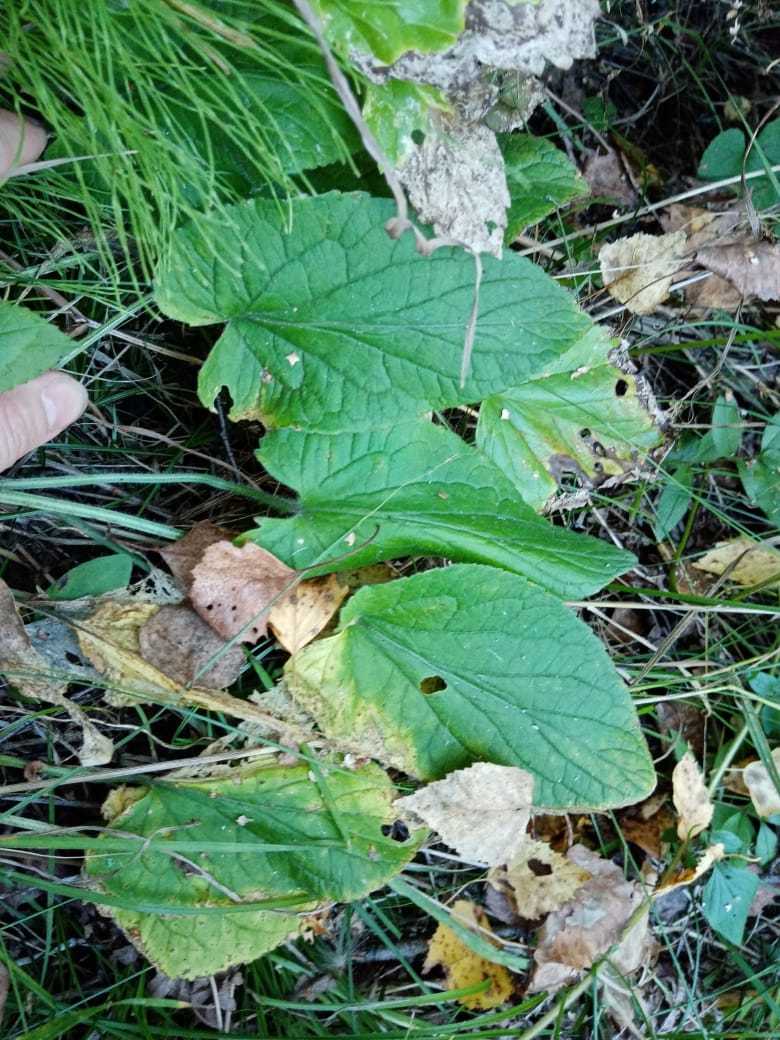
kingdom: Plantae
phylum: Tracheophyta
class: Magnoliopsida
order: Malpighiales
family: Violaceae
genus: Viola
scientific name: Viola hirta
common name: Hairy violet
